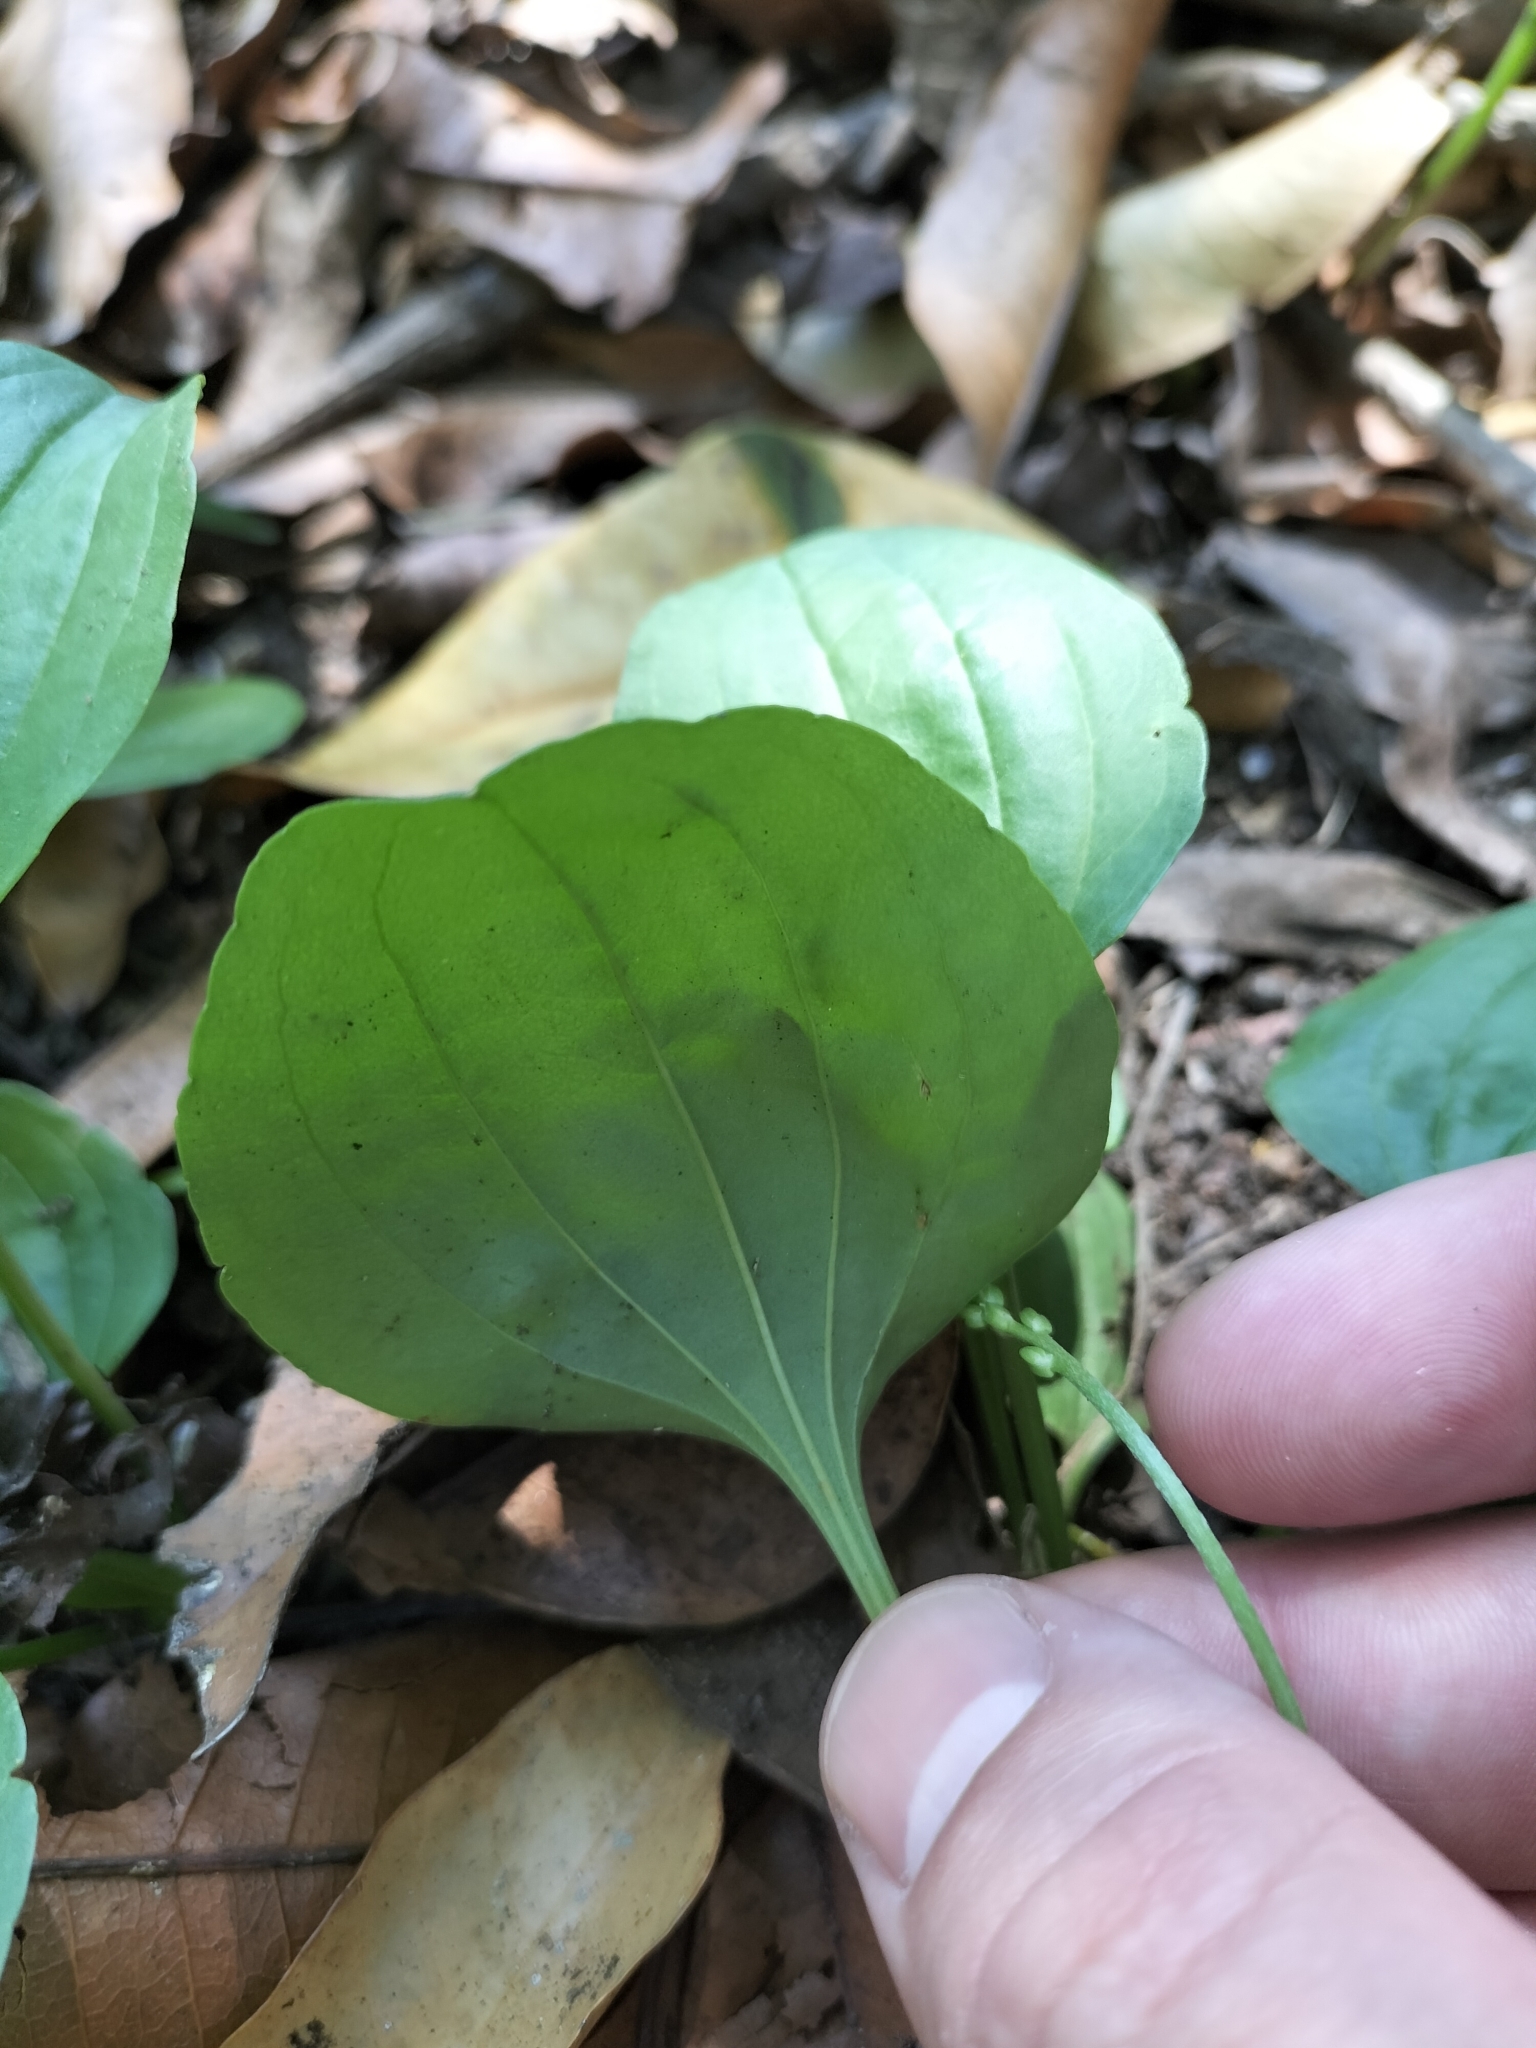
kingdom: Plantae
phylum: Tracheophyta
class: Magnoliopsida
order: Lamiales
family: Plantaginaceae
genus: Plantago
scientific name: Plantago major
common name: Common plantain
